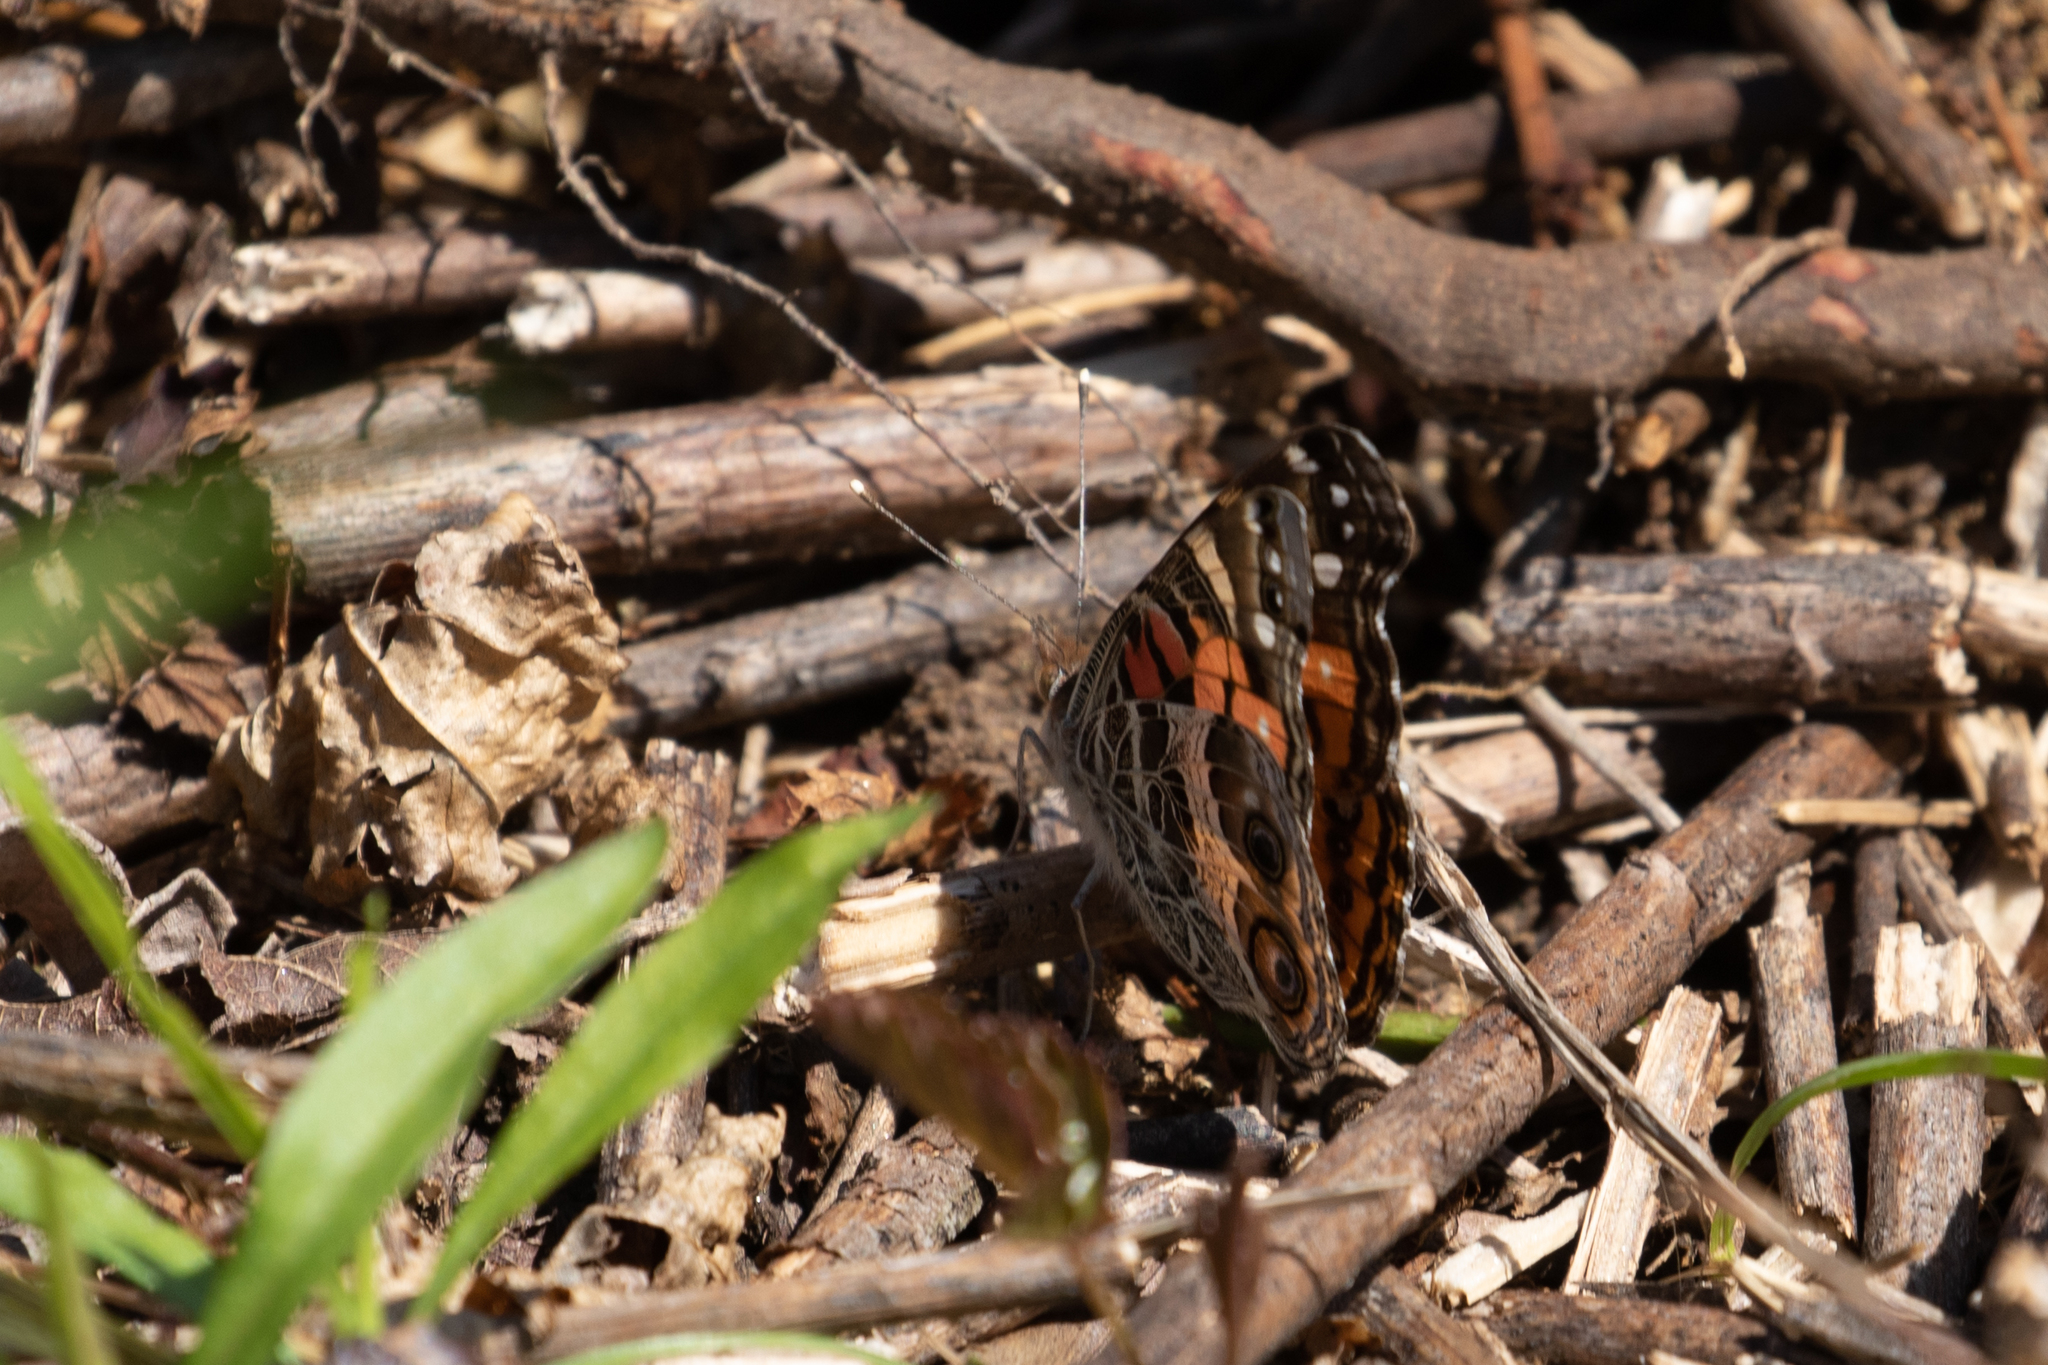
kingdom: Animalia
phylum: Arthropoda
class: Insecta
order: Lepidoptera
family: Nymphalidae
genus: Vanessa
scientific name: Vanessa virginiensis
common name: American lady
